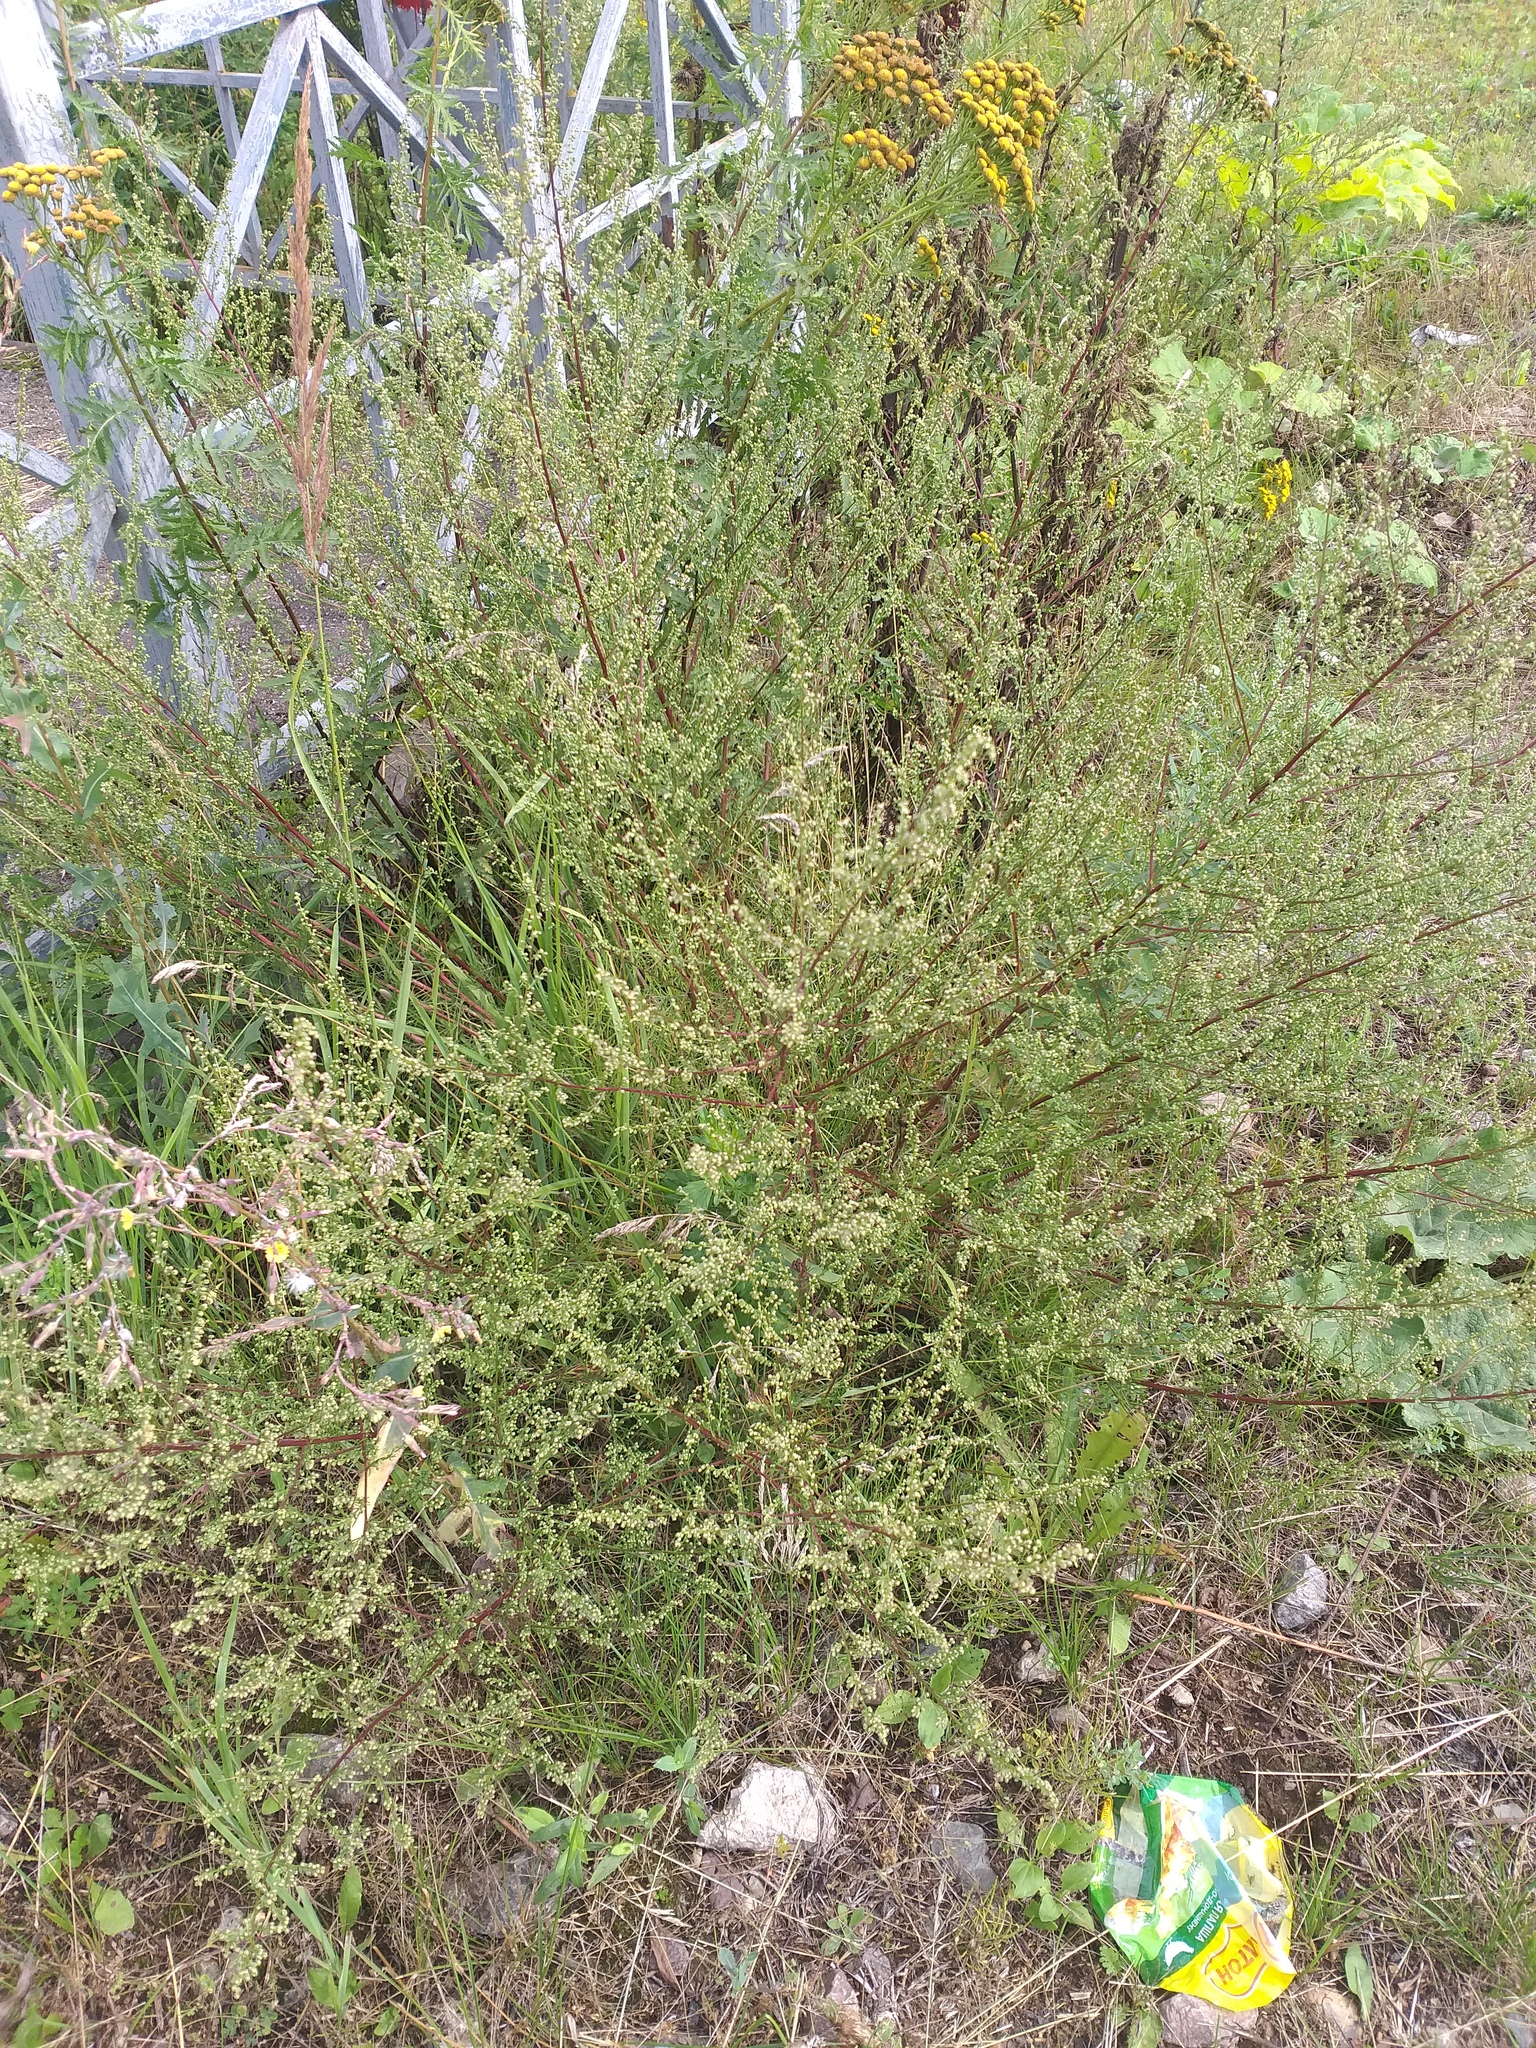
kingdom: Plantae
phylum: Tracheophyta
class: Magnoliopsida
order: Asterales
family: Asteraceae
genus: Artemisia
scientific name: Artemisia campestris
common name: Field wormwood
